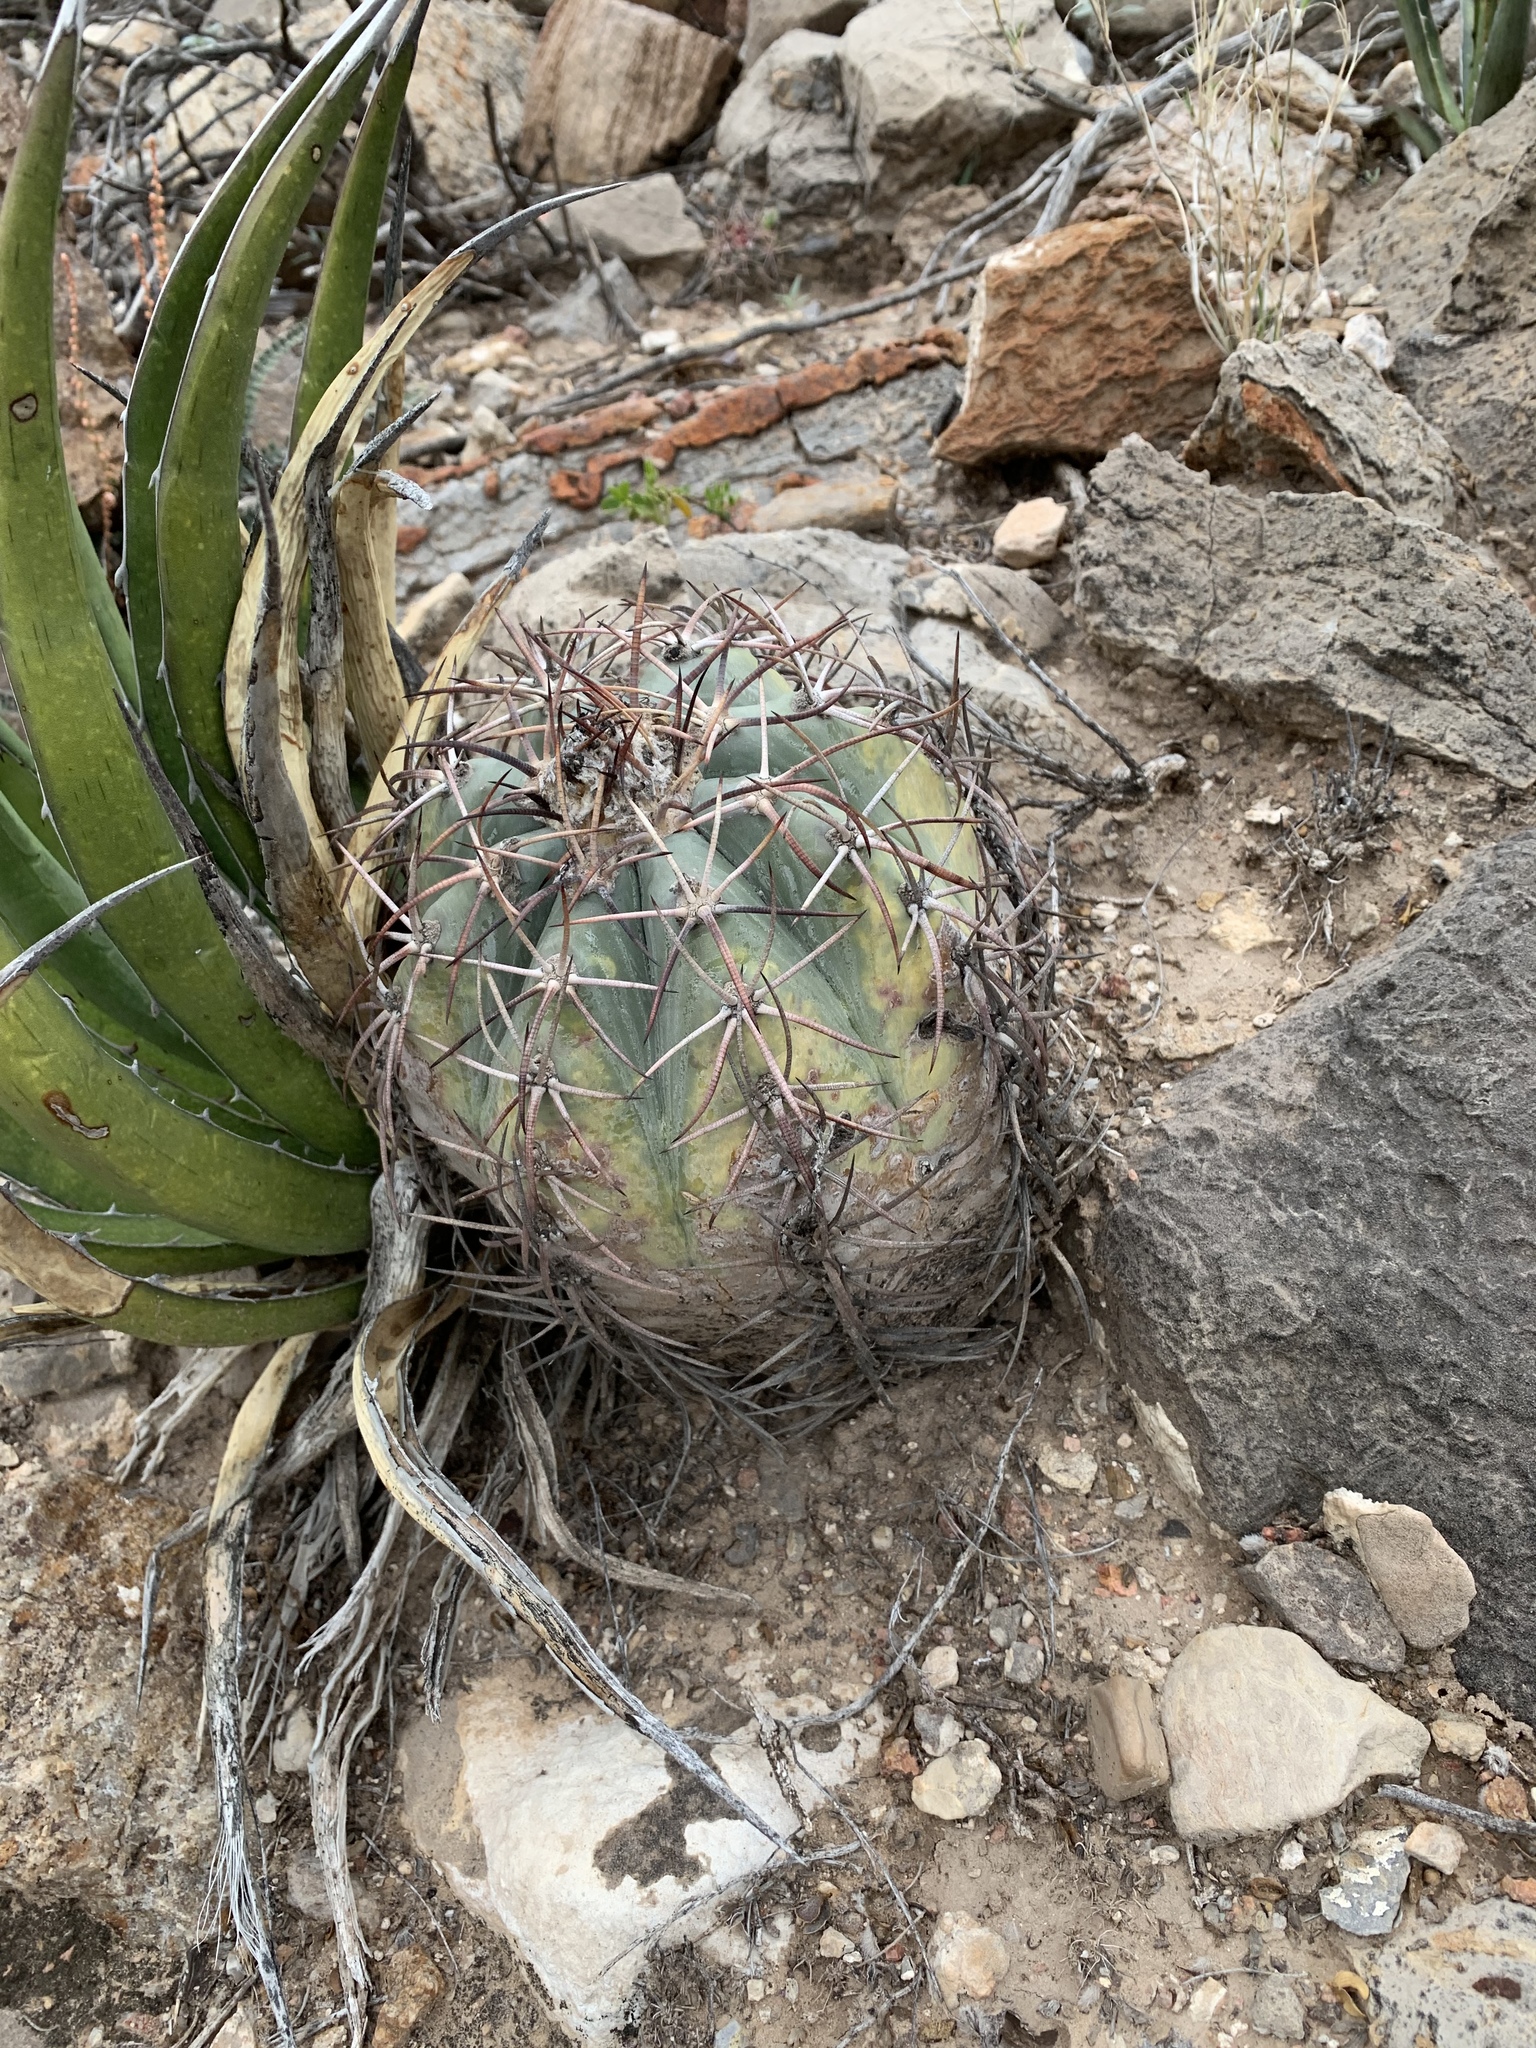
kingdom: Plantae
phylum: Tracheophyta
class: Magnoliopsida
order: Caryophyllales
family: Cactaceae
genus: Echinocactus
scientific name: Echinocactus horizonthalonius
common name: Devilshead
